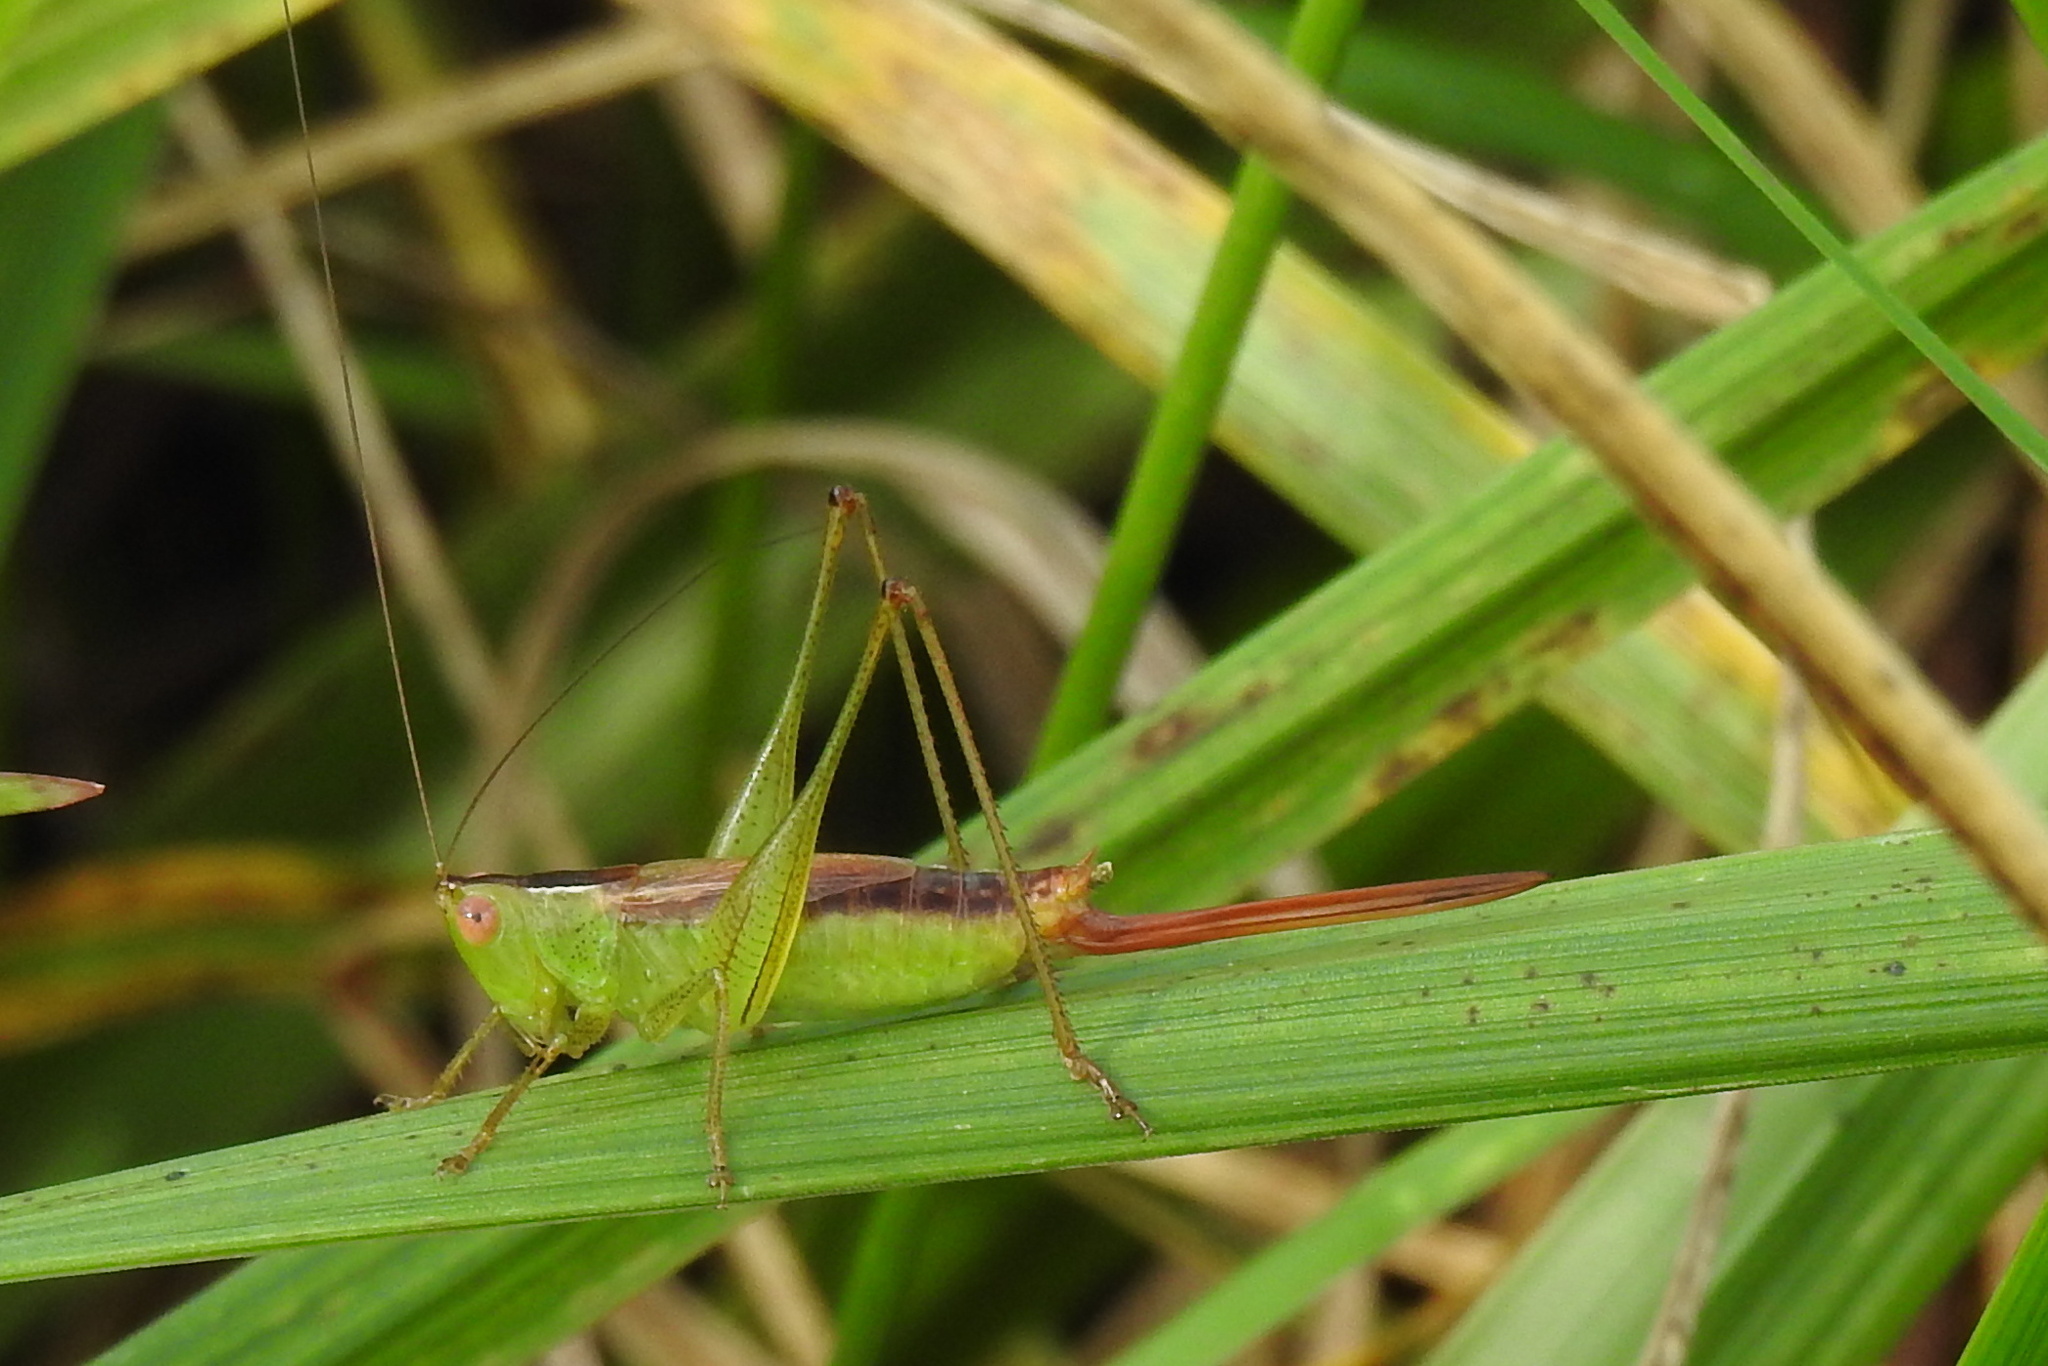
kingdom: Animalia
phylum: Arthropoda
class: Insecta
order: Orthoptera
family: Tettigoniidae
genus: Conocephalus
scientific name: Conocephalus brevipennis
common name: Short-winged meadow katydid
